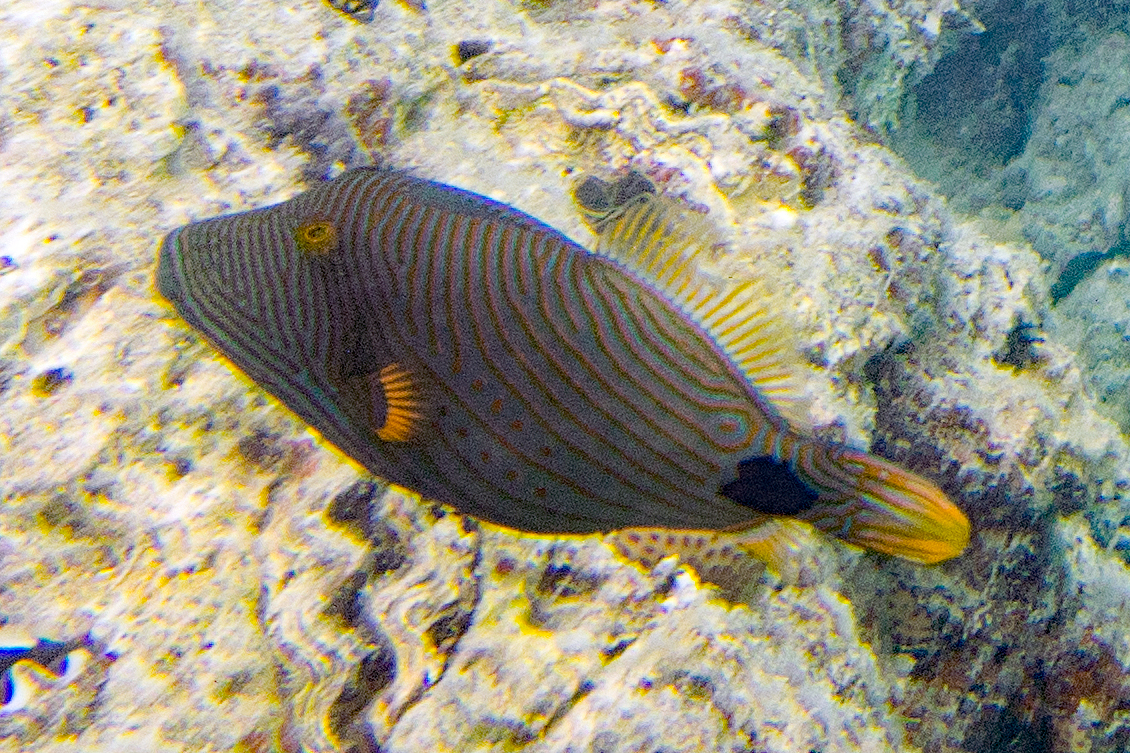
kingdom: Animalia
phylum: Chordata
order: Tetraodontiformes
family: Balistidae
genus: Balistapus
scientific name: Balistapus undulatus
